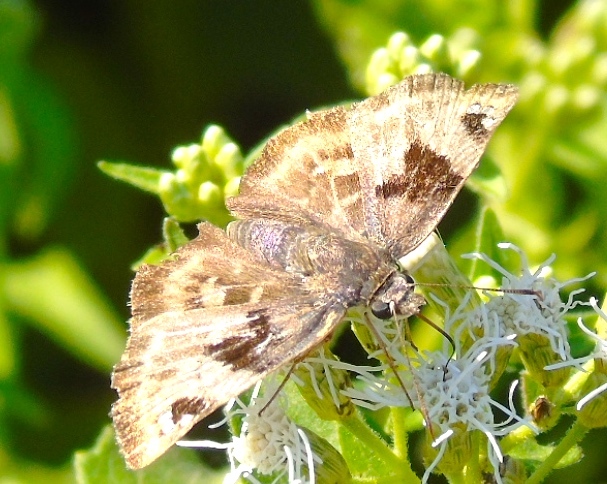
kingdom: Animalia
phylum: Arthropoda
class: Insecta
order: Lepidoptera
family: Hesperiidae
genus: Arteurotia
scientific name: Arteurotia tractipennis
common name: Starred skipper
